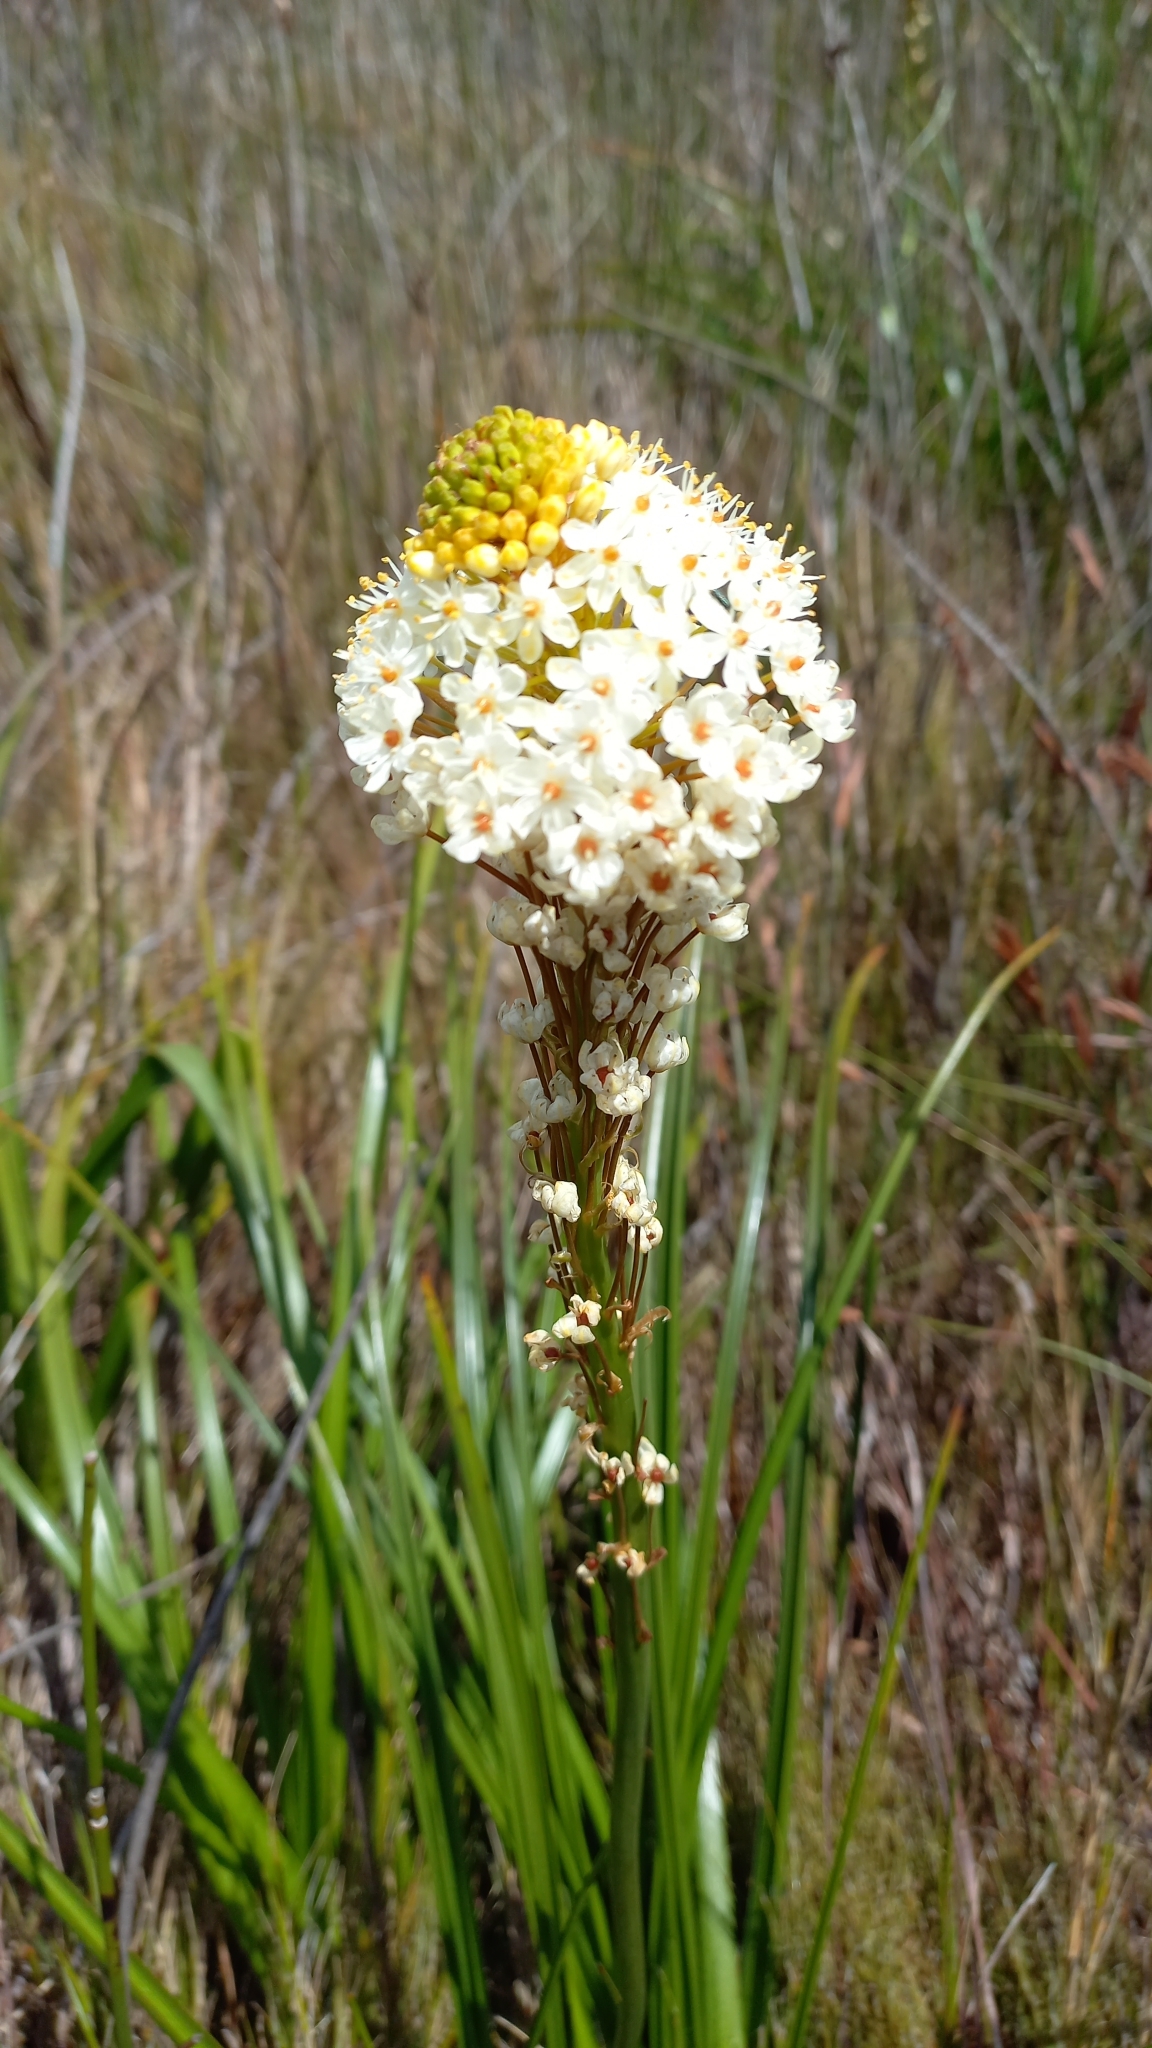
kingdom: Plantae
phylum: Tracheophyta
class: Liliopsida
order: Asparagales
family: Asphodelaceae
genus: Bulbinella
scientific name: Bulbinella nutans
